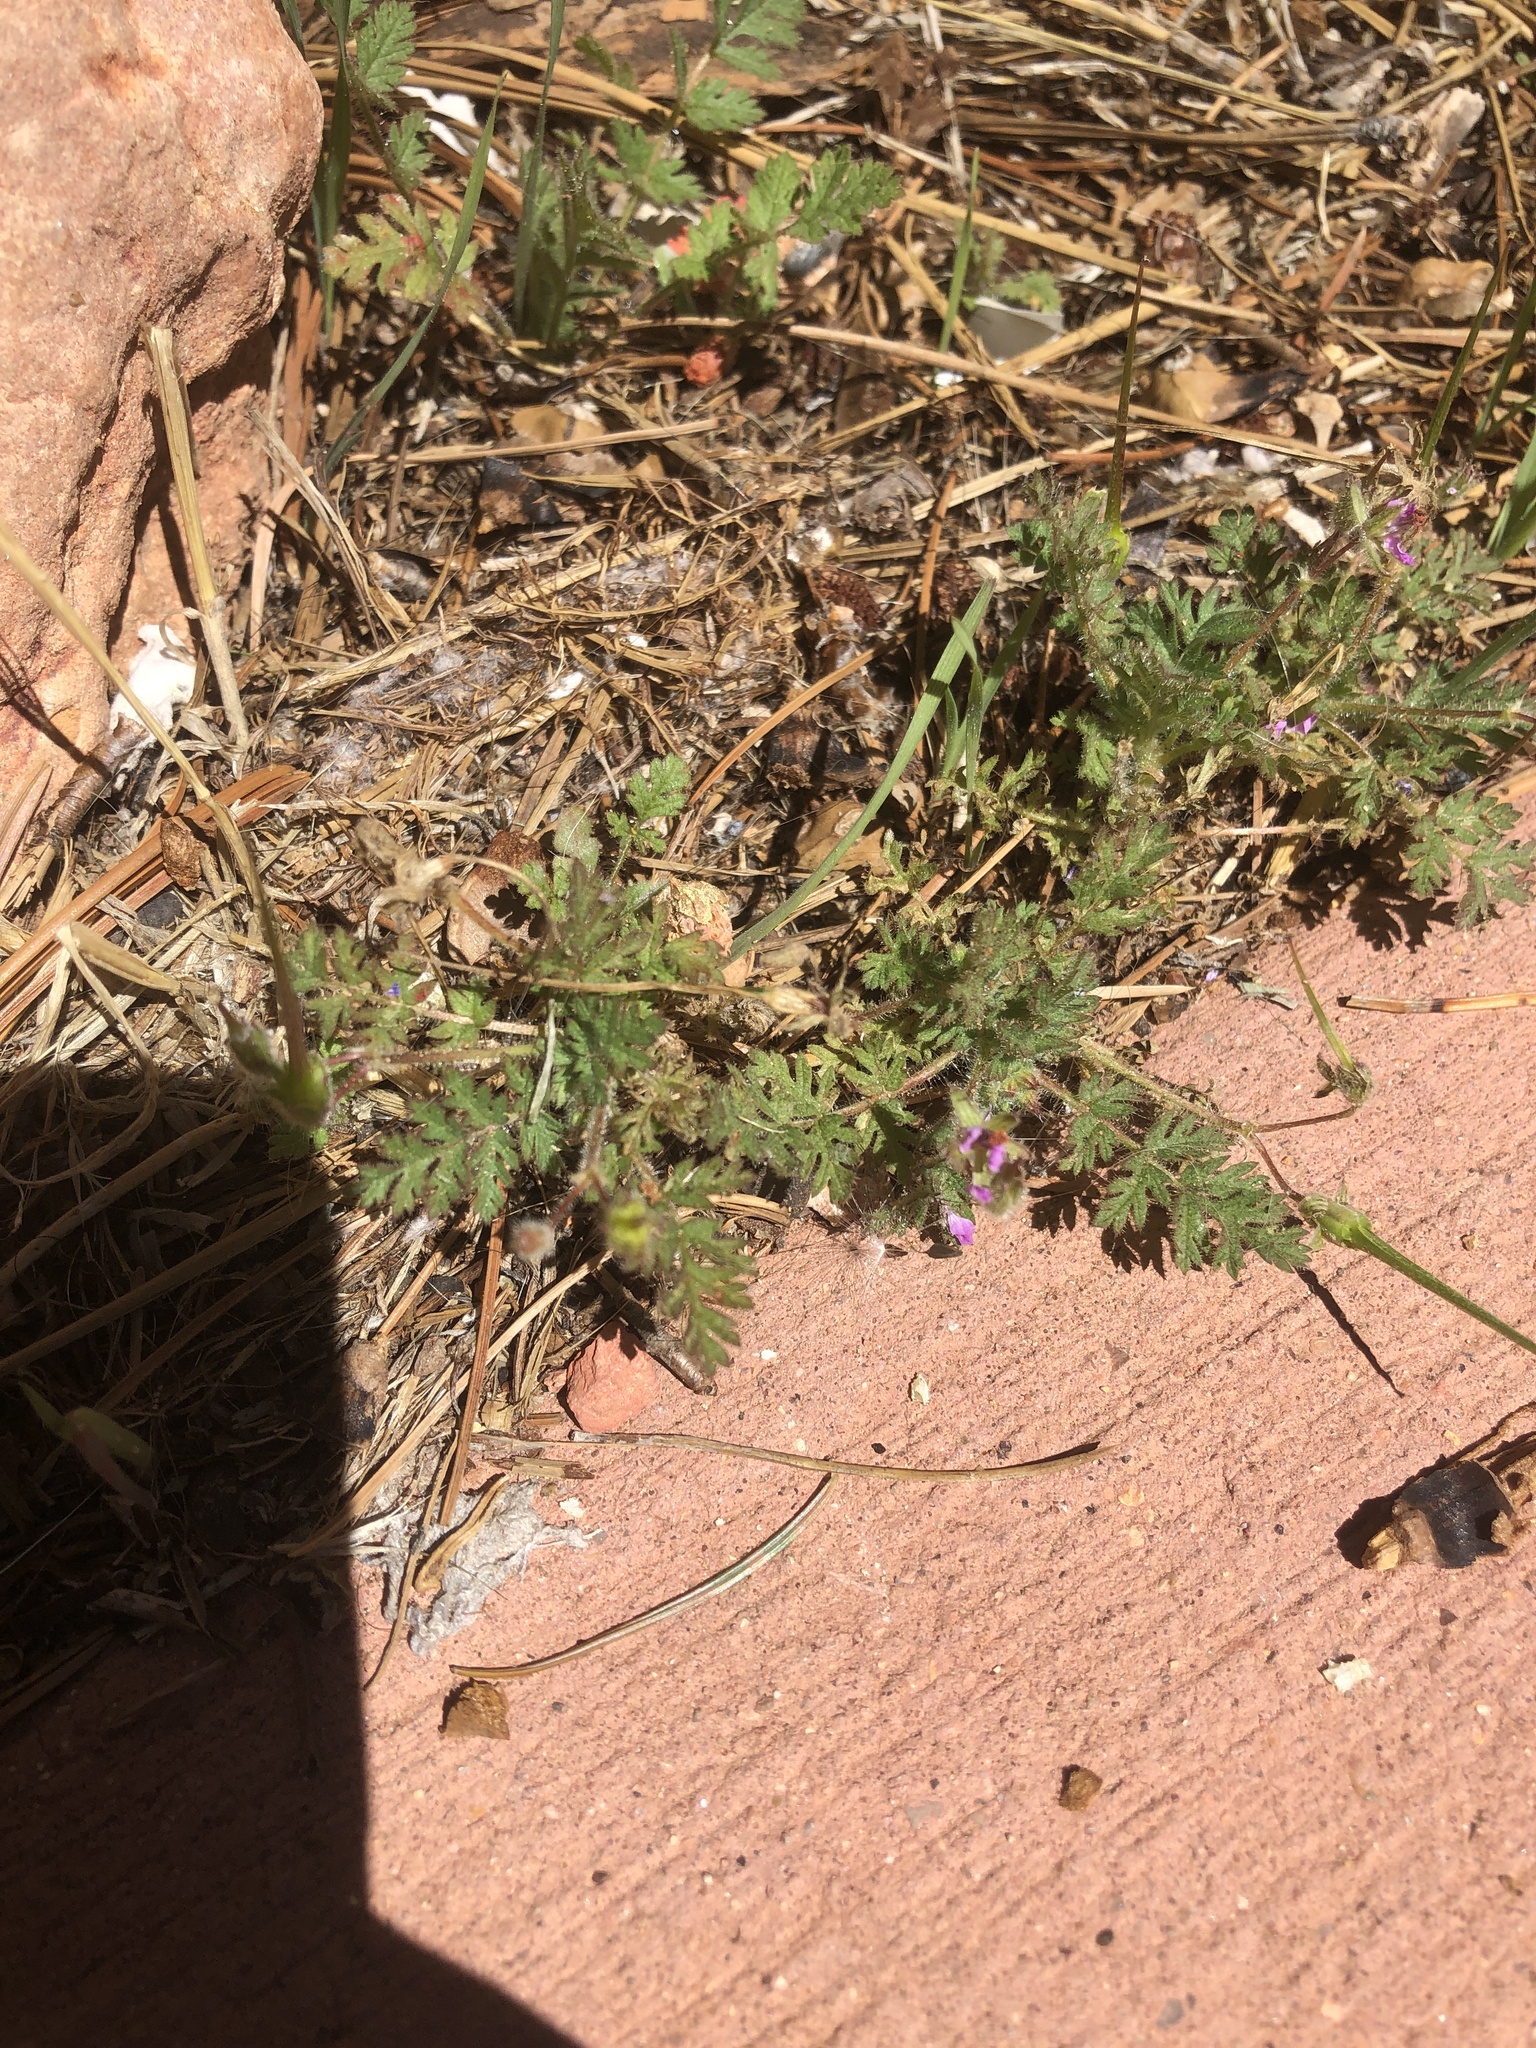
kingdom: Plantae
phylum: Tracheophyta
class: Magnoliopsida
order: Geraniales
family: Geraniaceae
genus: Erodium
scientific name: Erodium cicutarium
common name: Common stork's-bill
